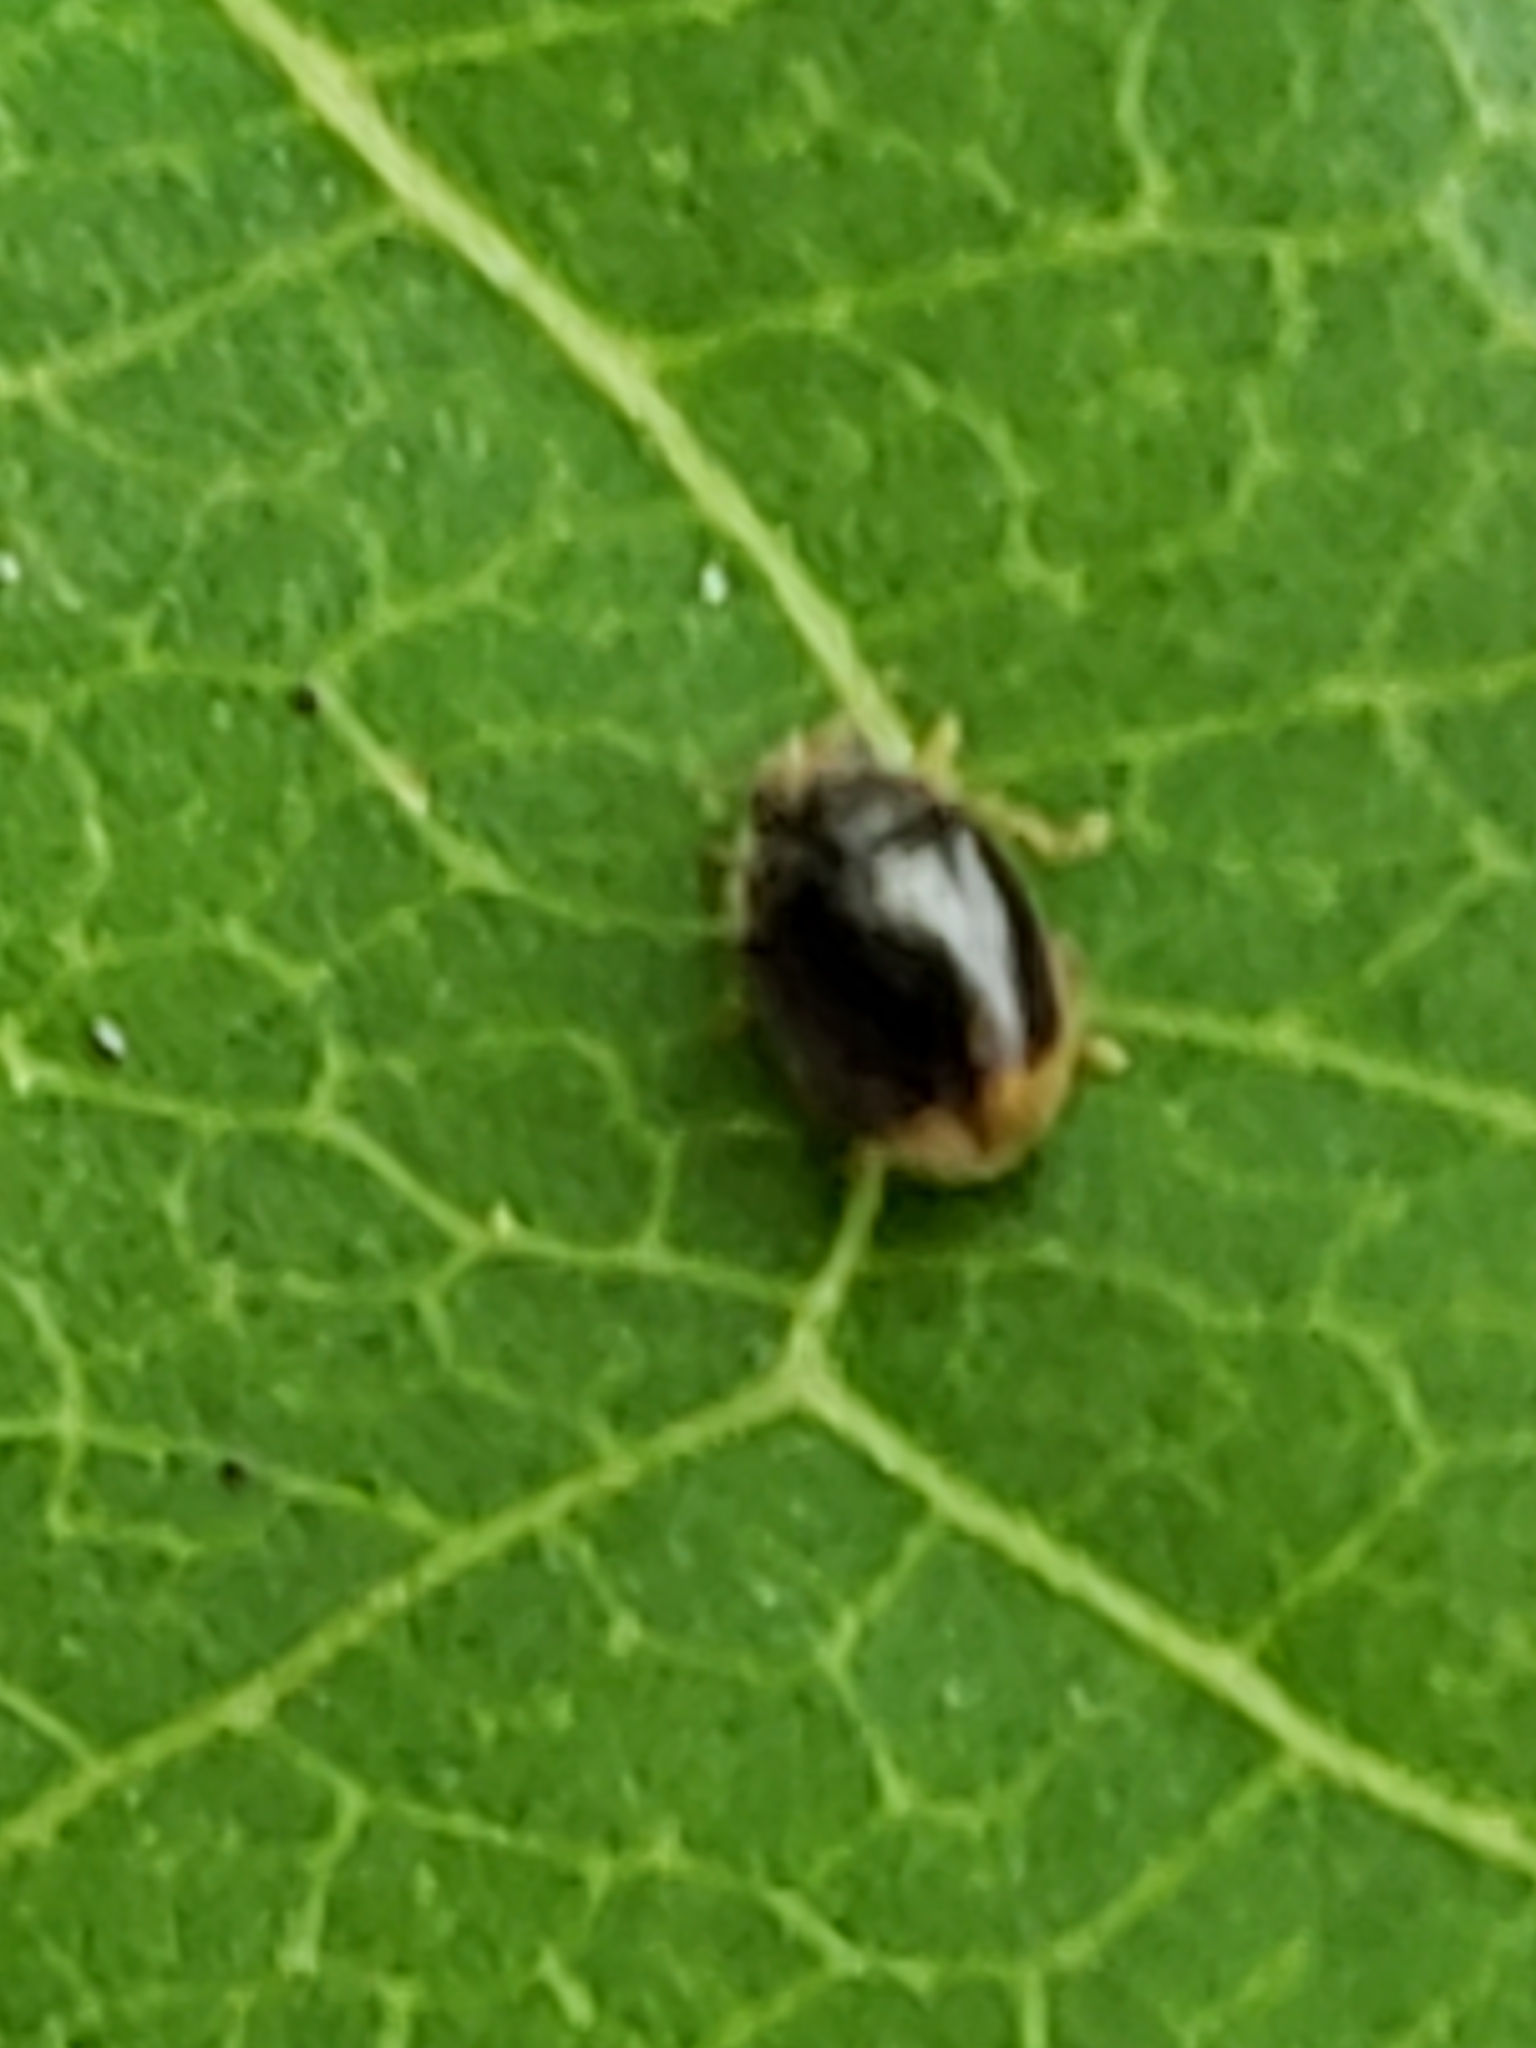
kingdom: Animalia
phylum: Arthropoda
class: Insecta
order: Coleoptera
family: Coccinellidae
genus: Diomus
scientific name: Diomus terminatus
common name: Firefly duskyling
